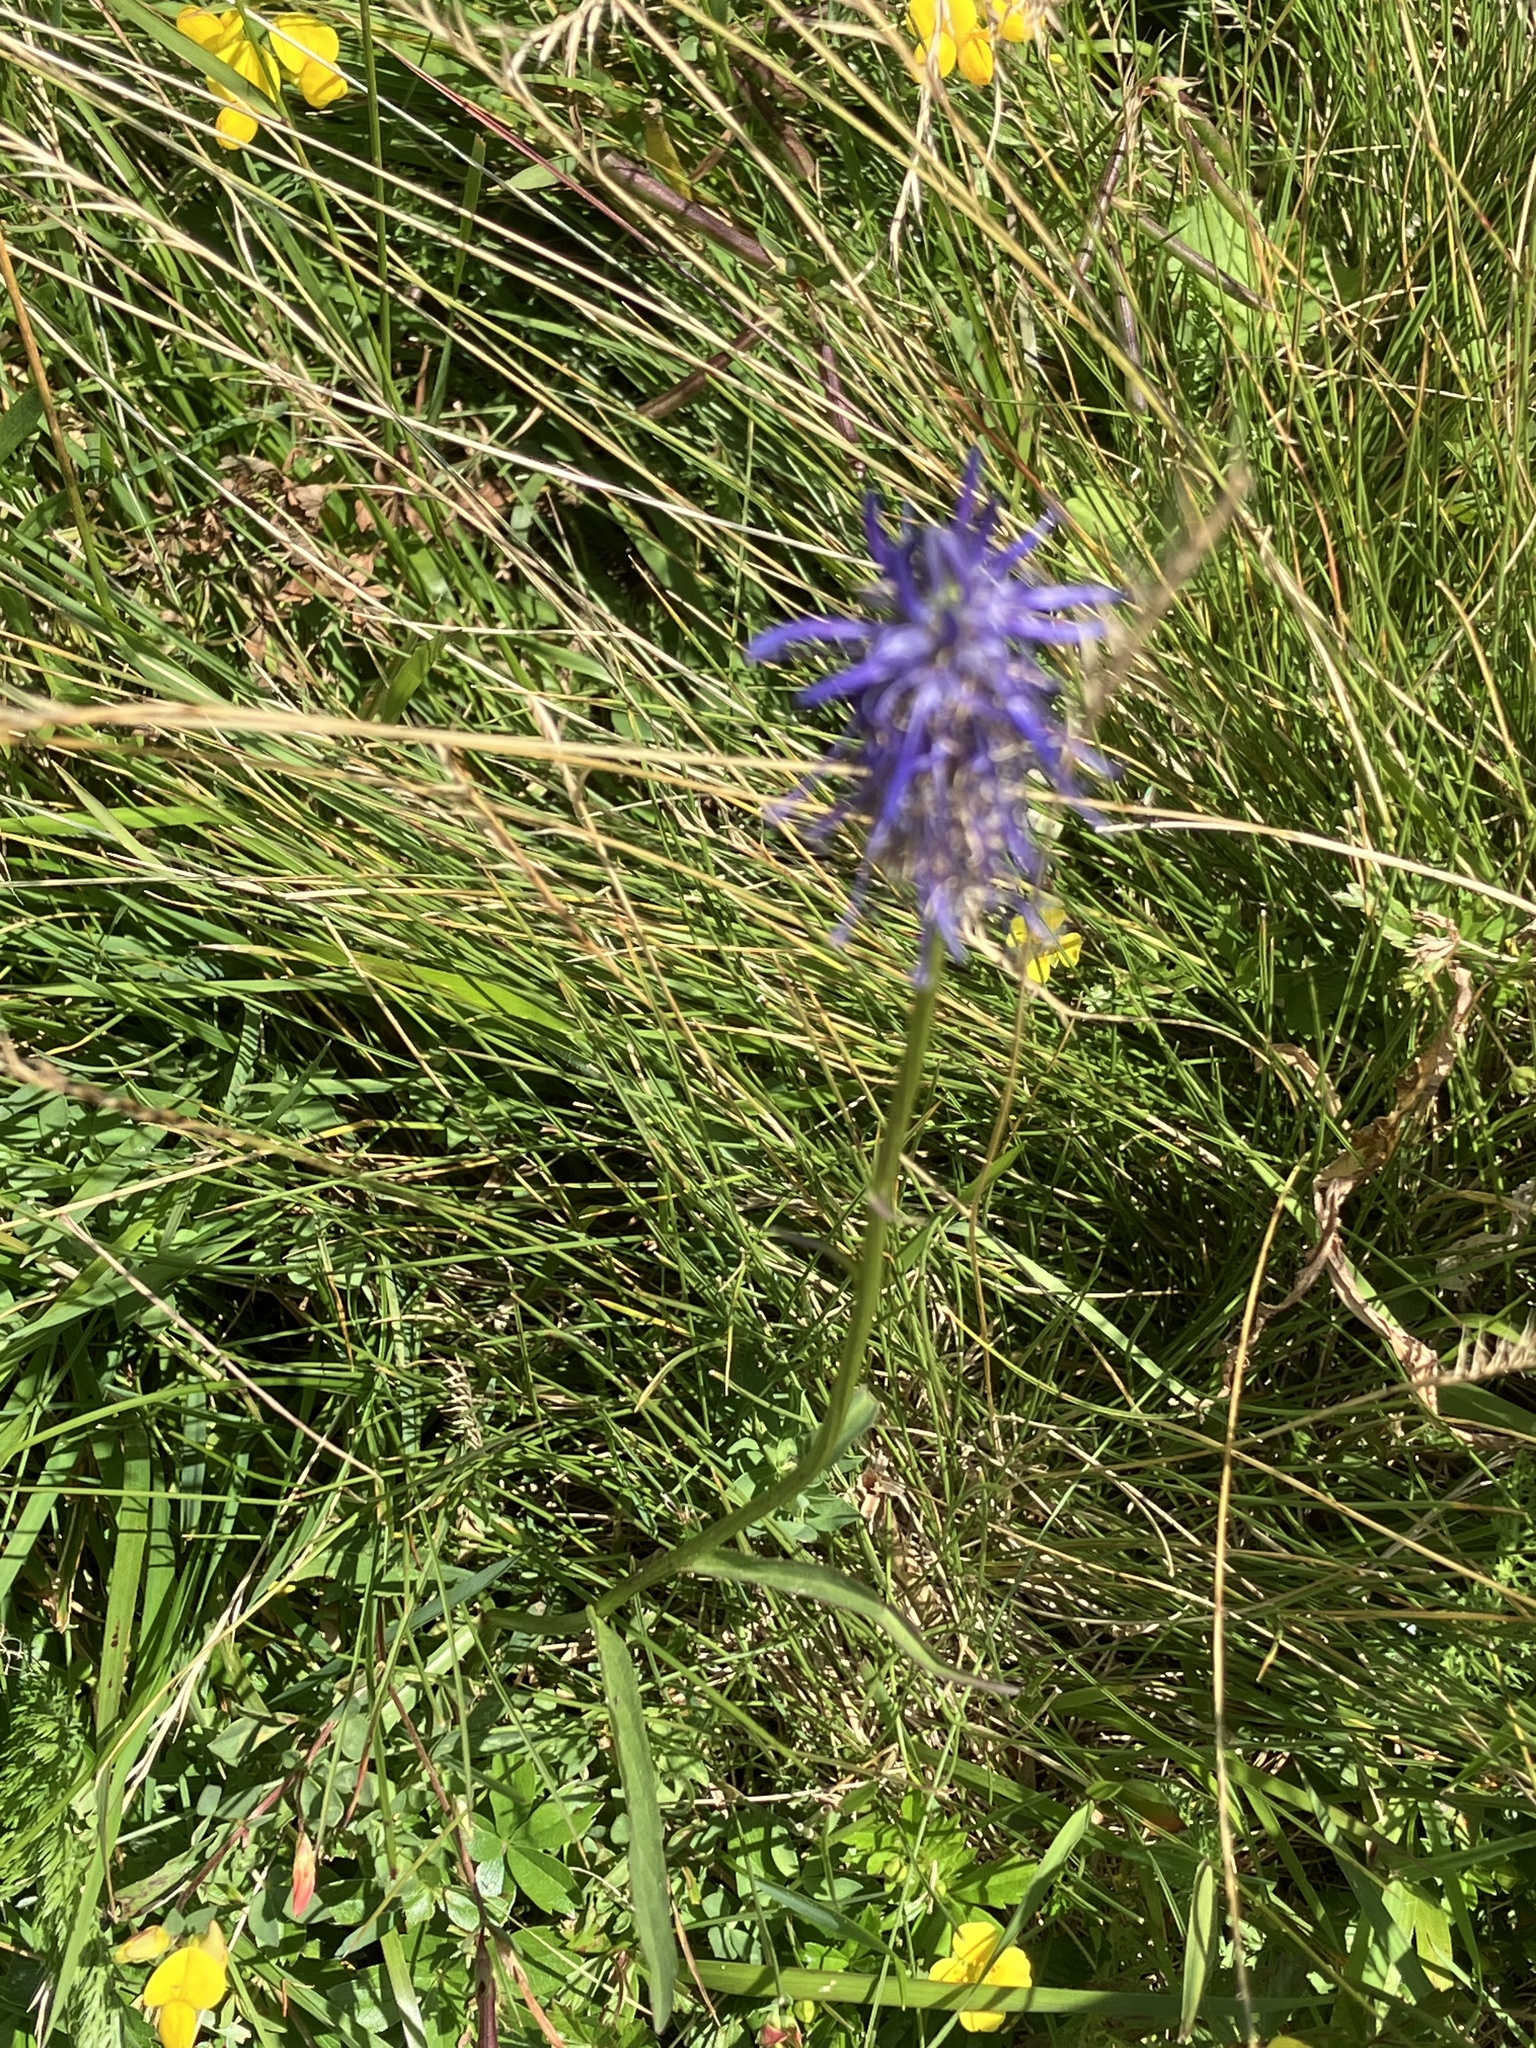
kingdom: Plantae
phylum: Tracheophyta
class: Magnoliopsida
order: Asterales
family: Campanulaceae
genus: Phyteuma
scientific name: Phyteuma persicifolium
